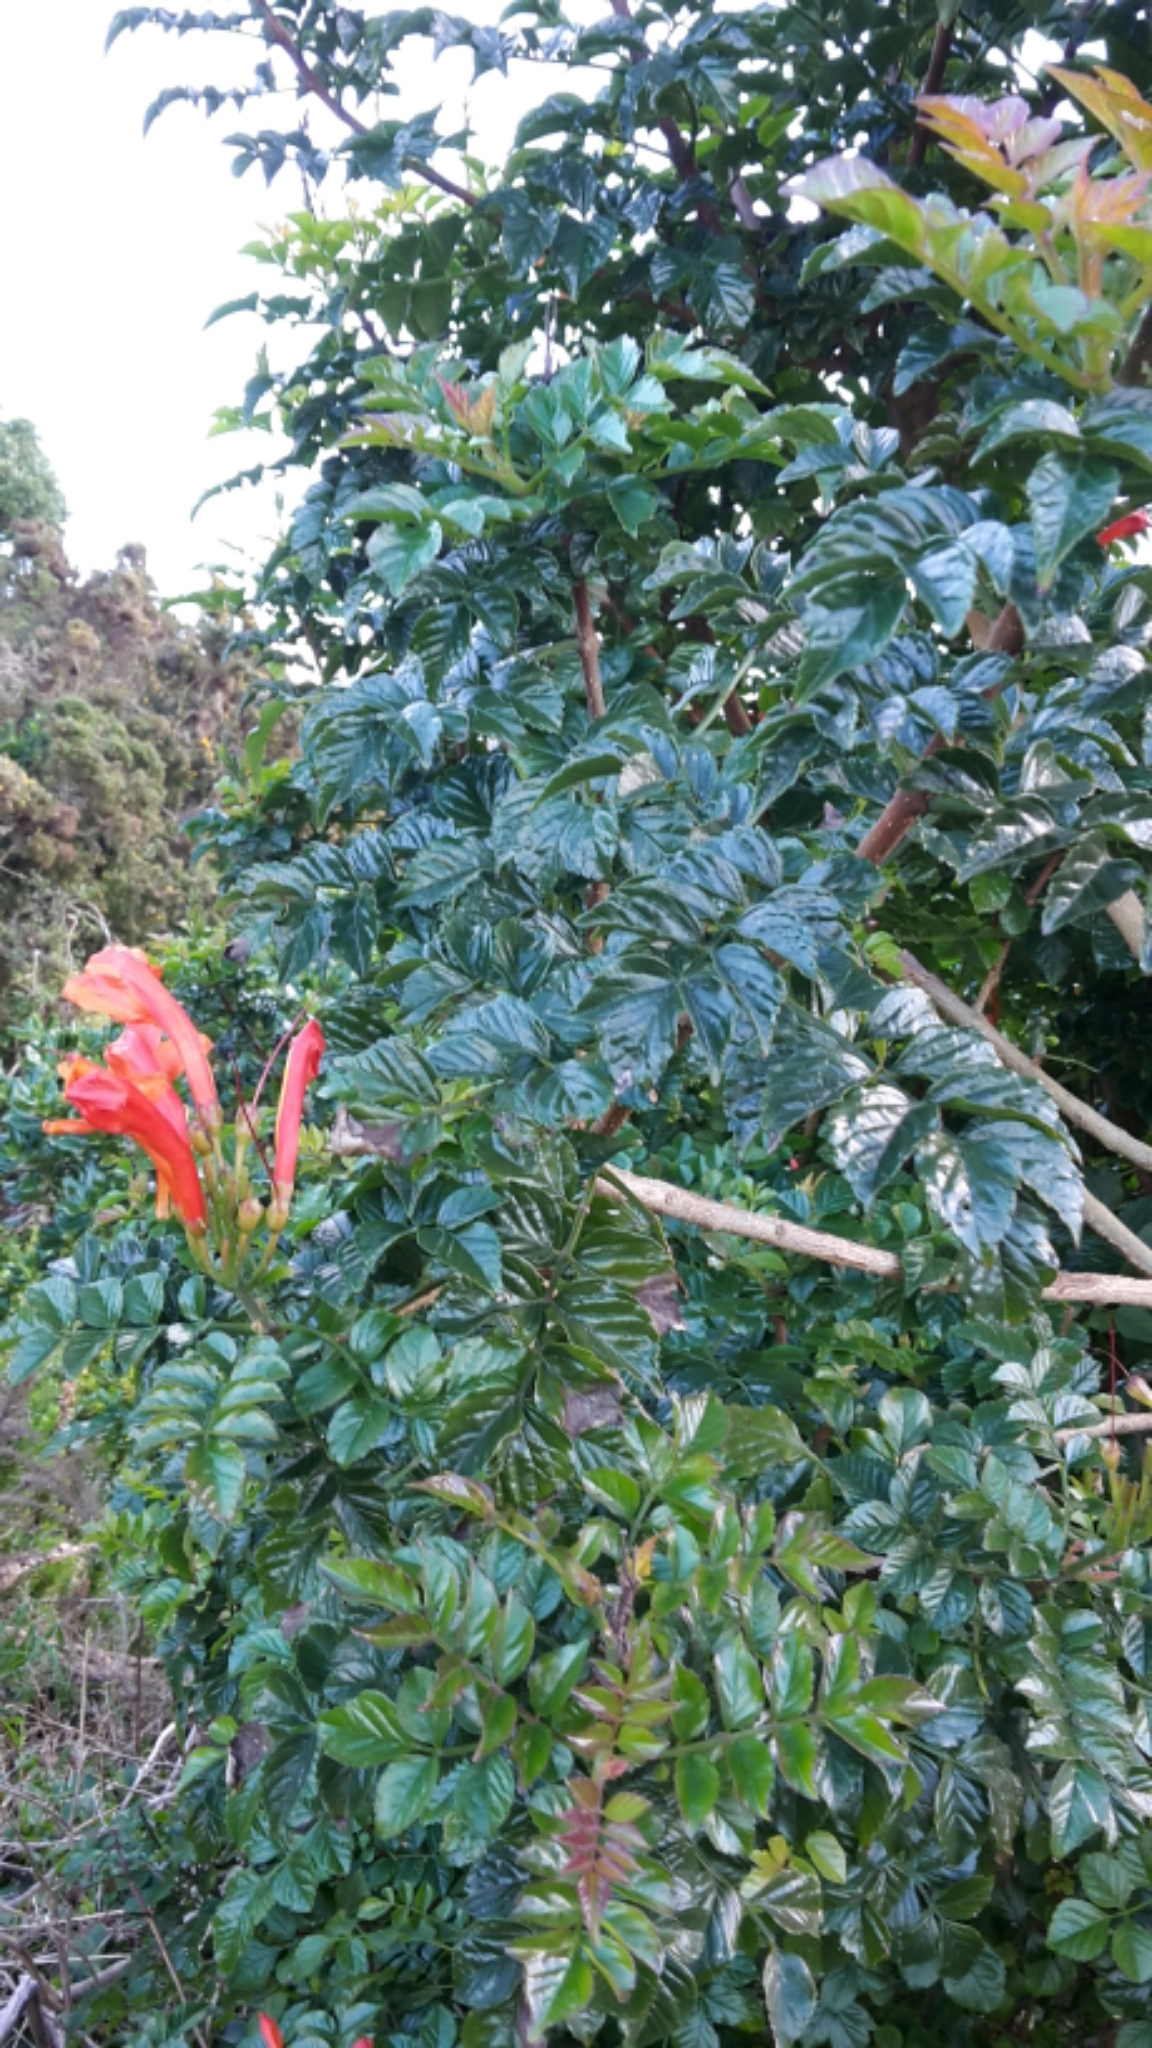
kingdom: Plantae
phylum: Tracheophyta
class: Magnoliopsida
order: Lamiales
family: Bignoniaceae
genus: Tecomaria
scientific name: Tecomaria capensis
